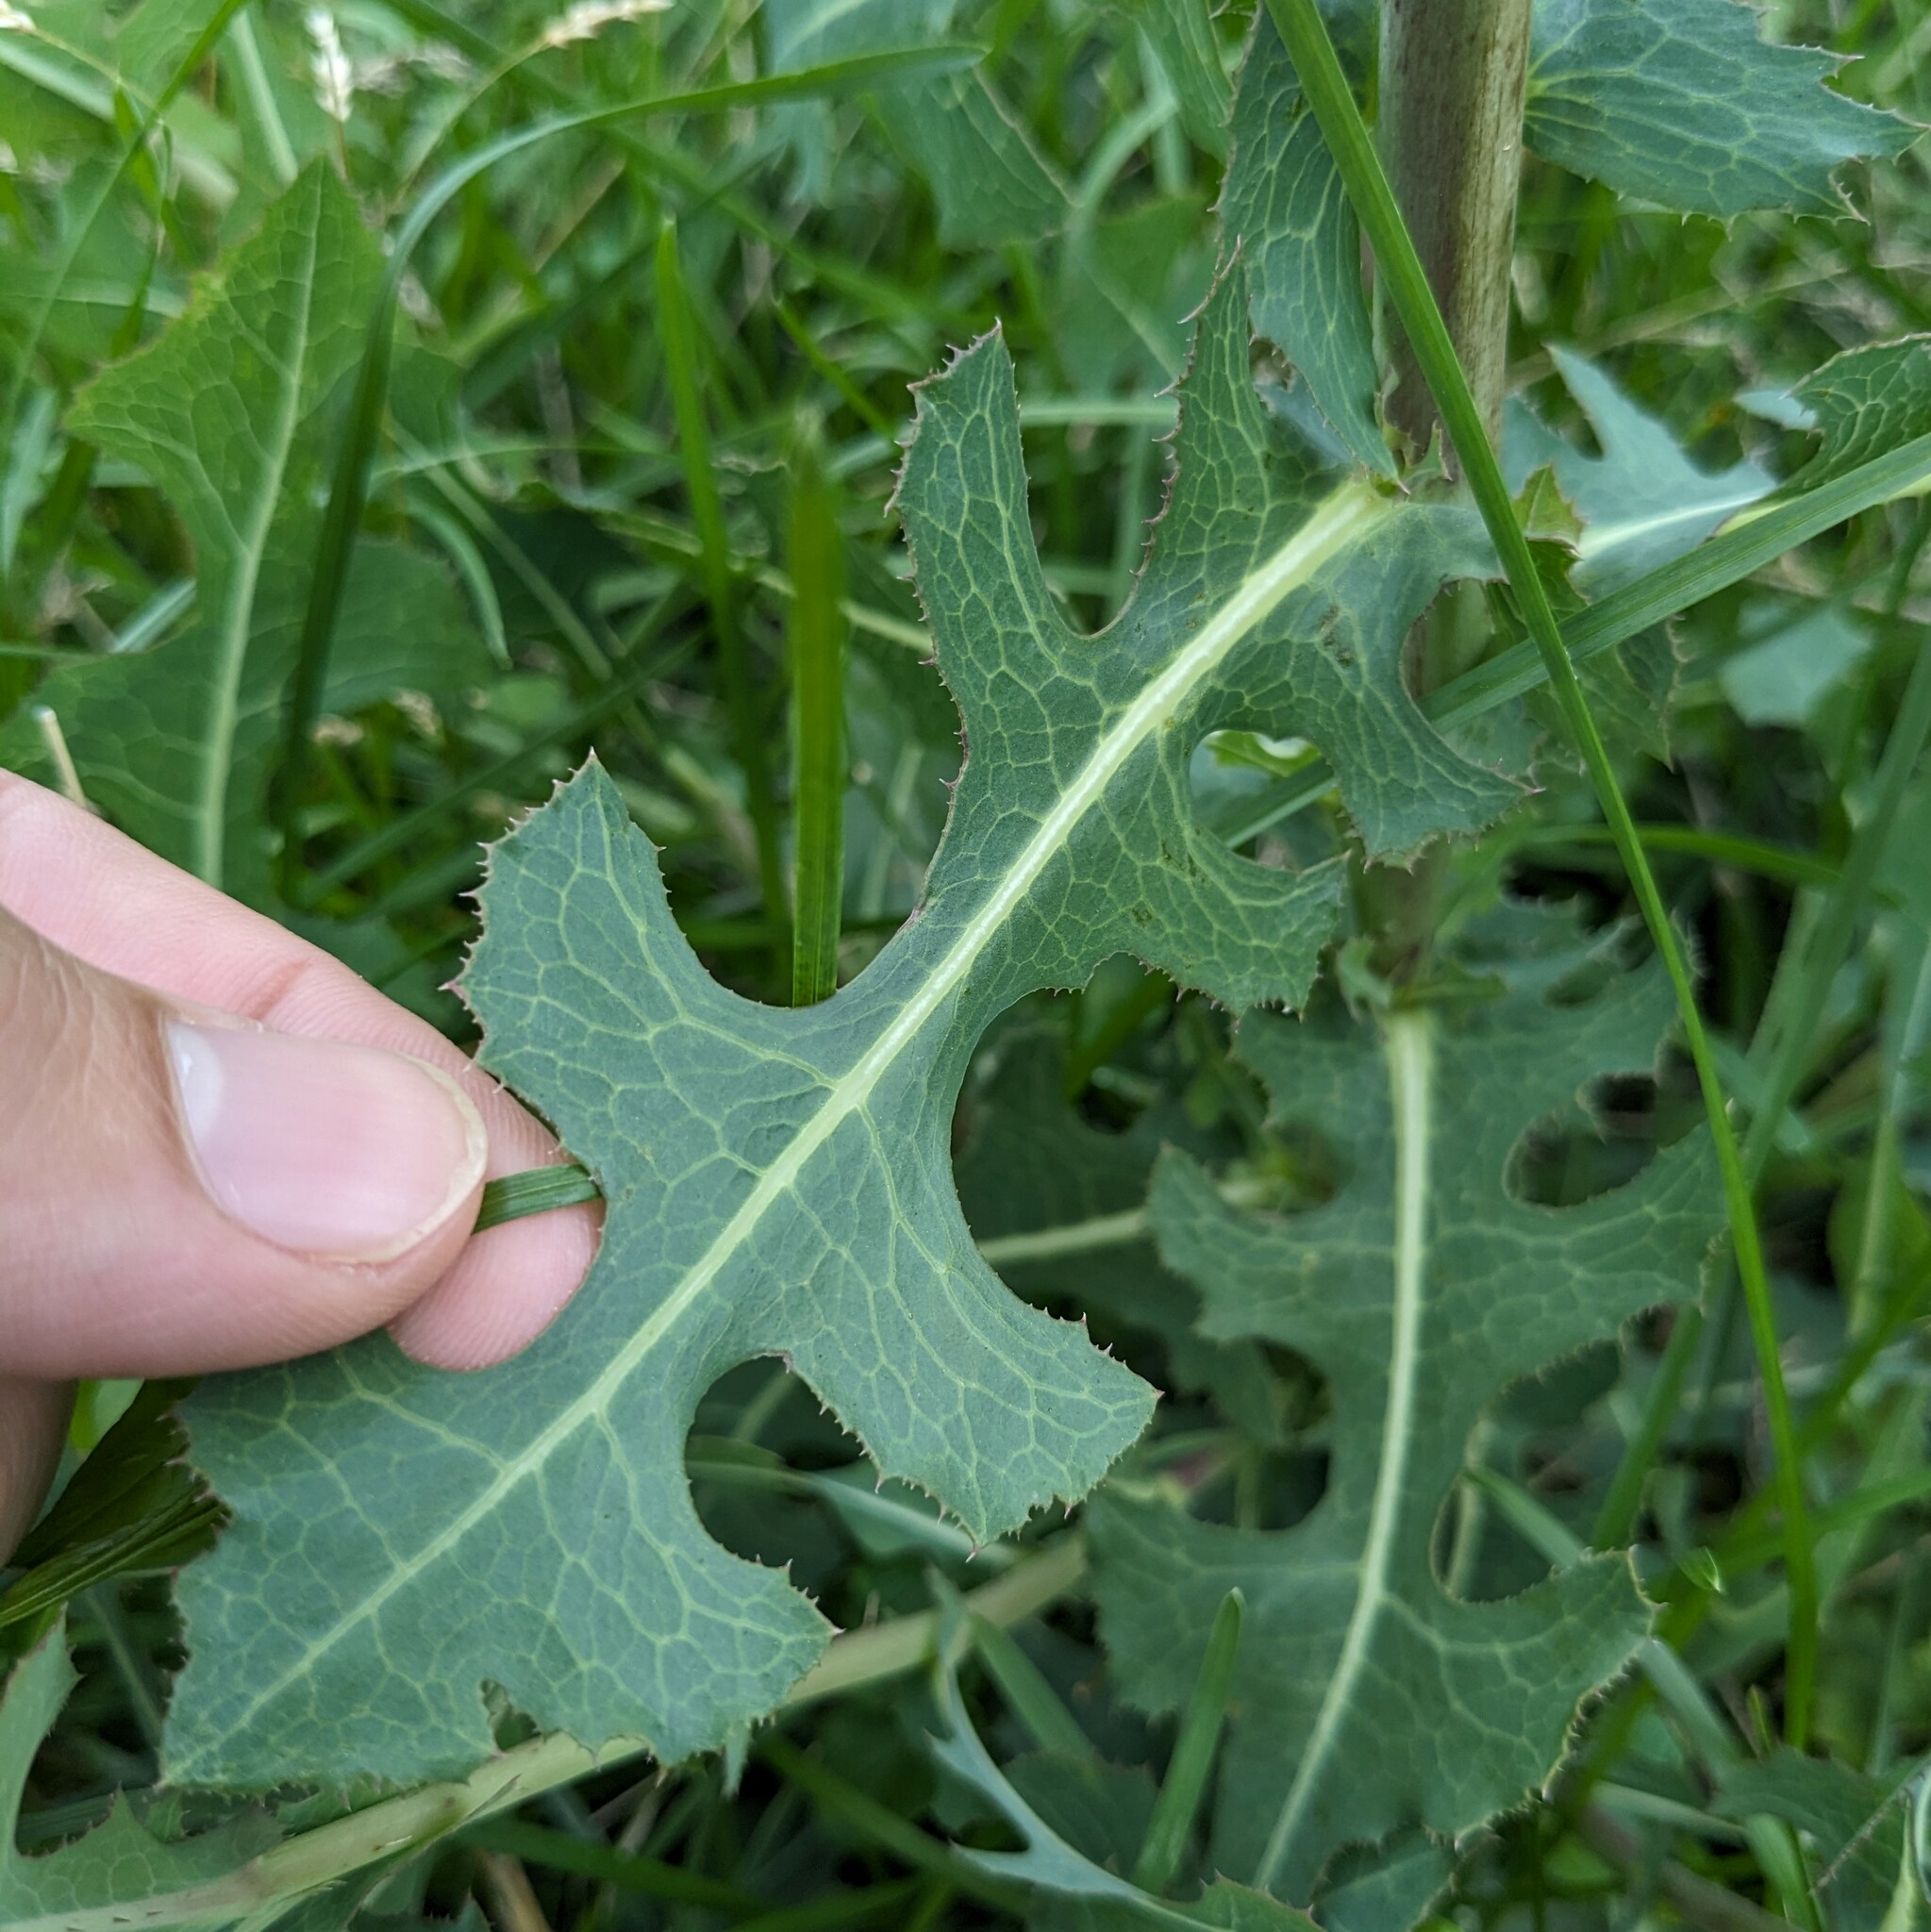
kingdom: Plantae
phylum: Tracheophyta
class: Magnoliopsida
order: Asterales
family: Asteraceae
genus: Lactuca
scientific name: Lactuca serriola
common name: Prickly lettuce
